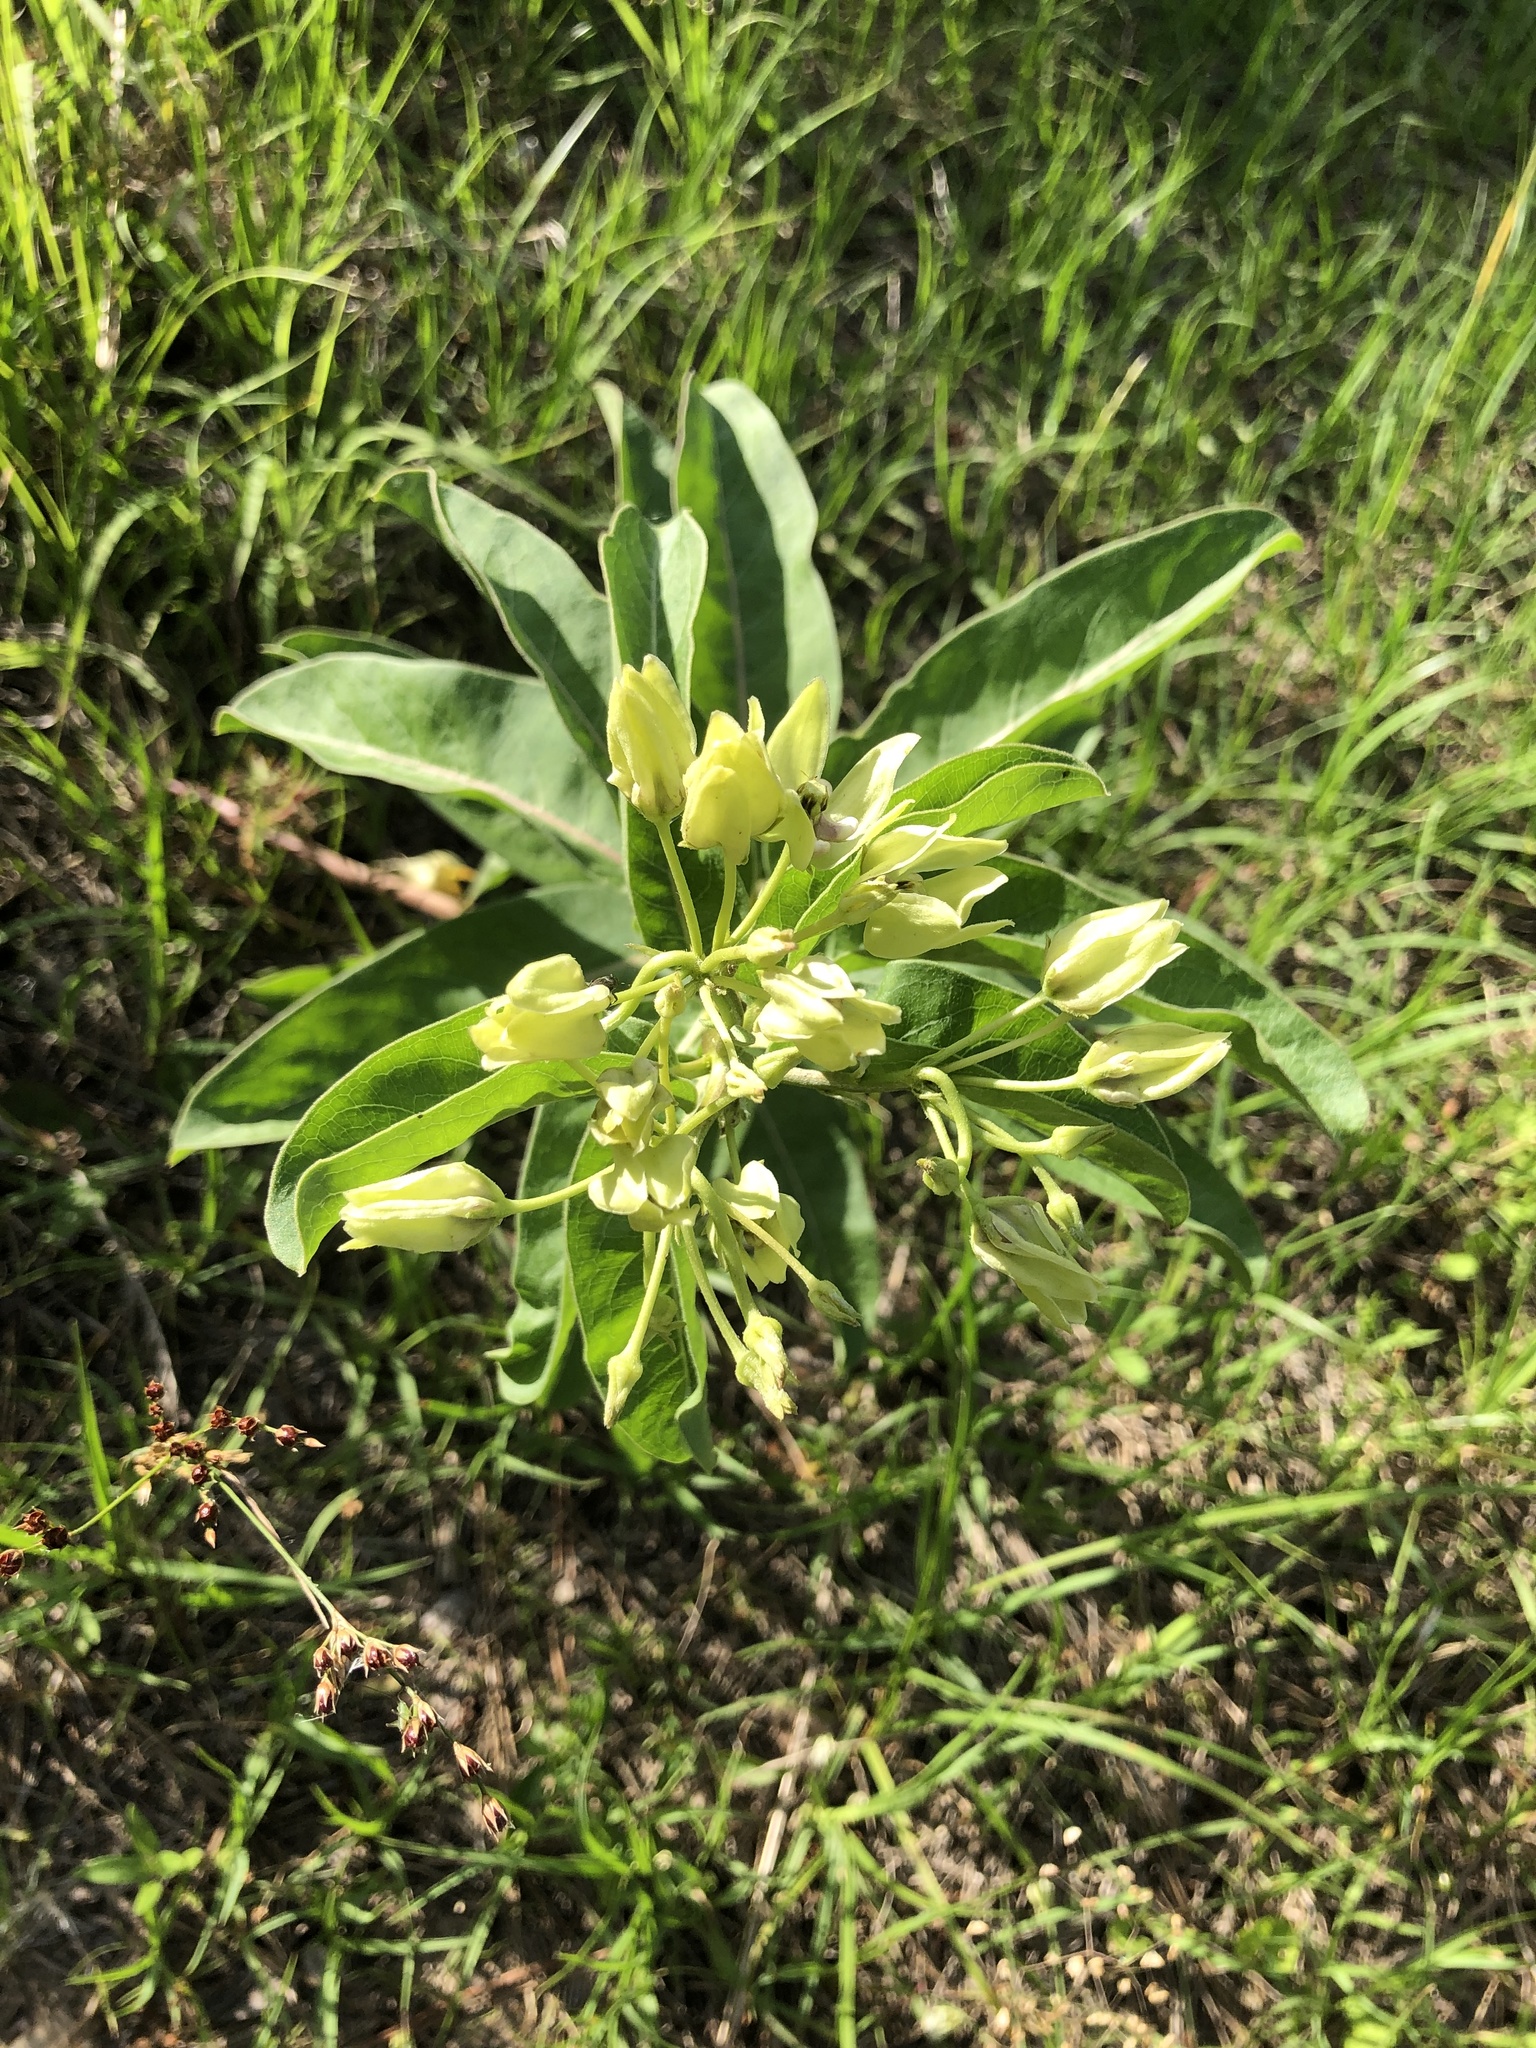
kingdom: Plantae
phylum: Tracheophyta
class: Magnoliopsida
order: Gentianales
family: Apocynaceae
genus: Asclepias
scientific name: Asclepias viridis
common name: Antelope-horns
